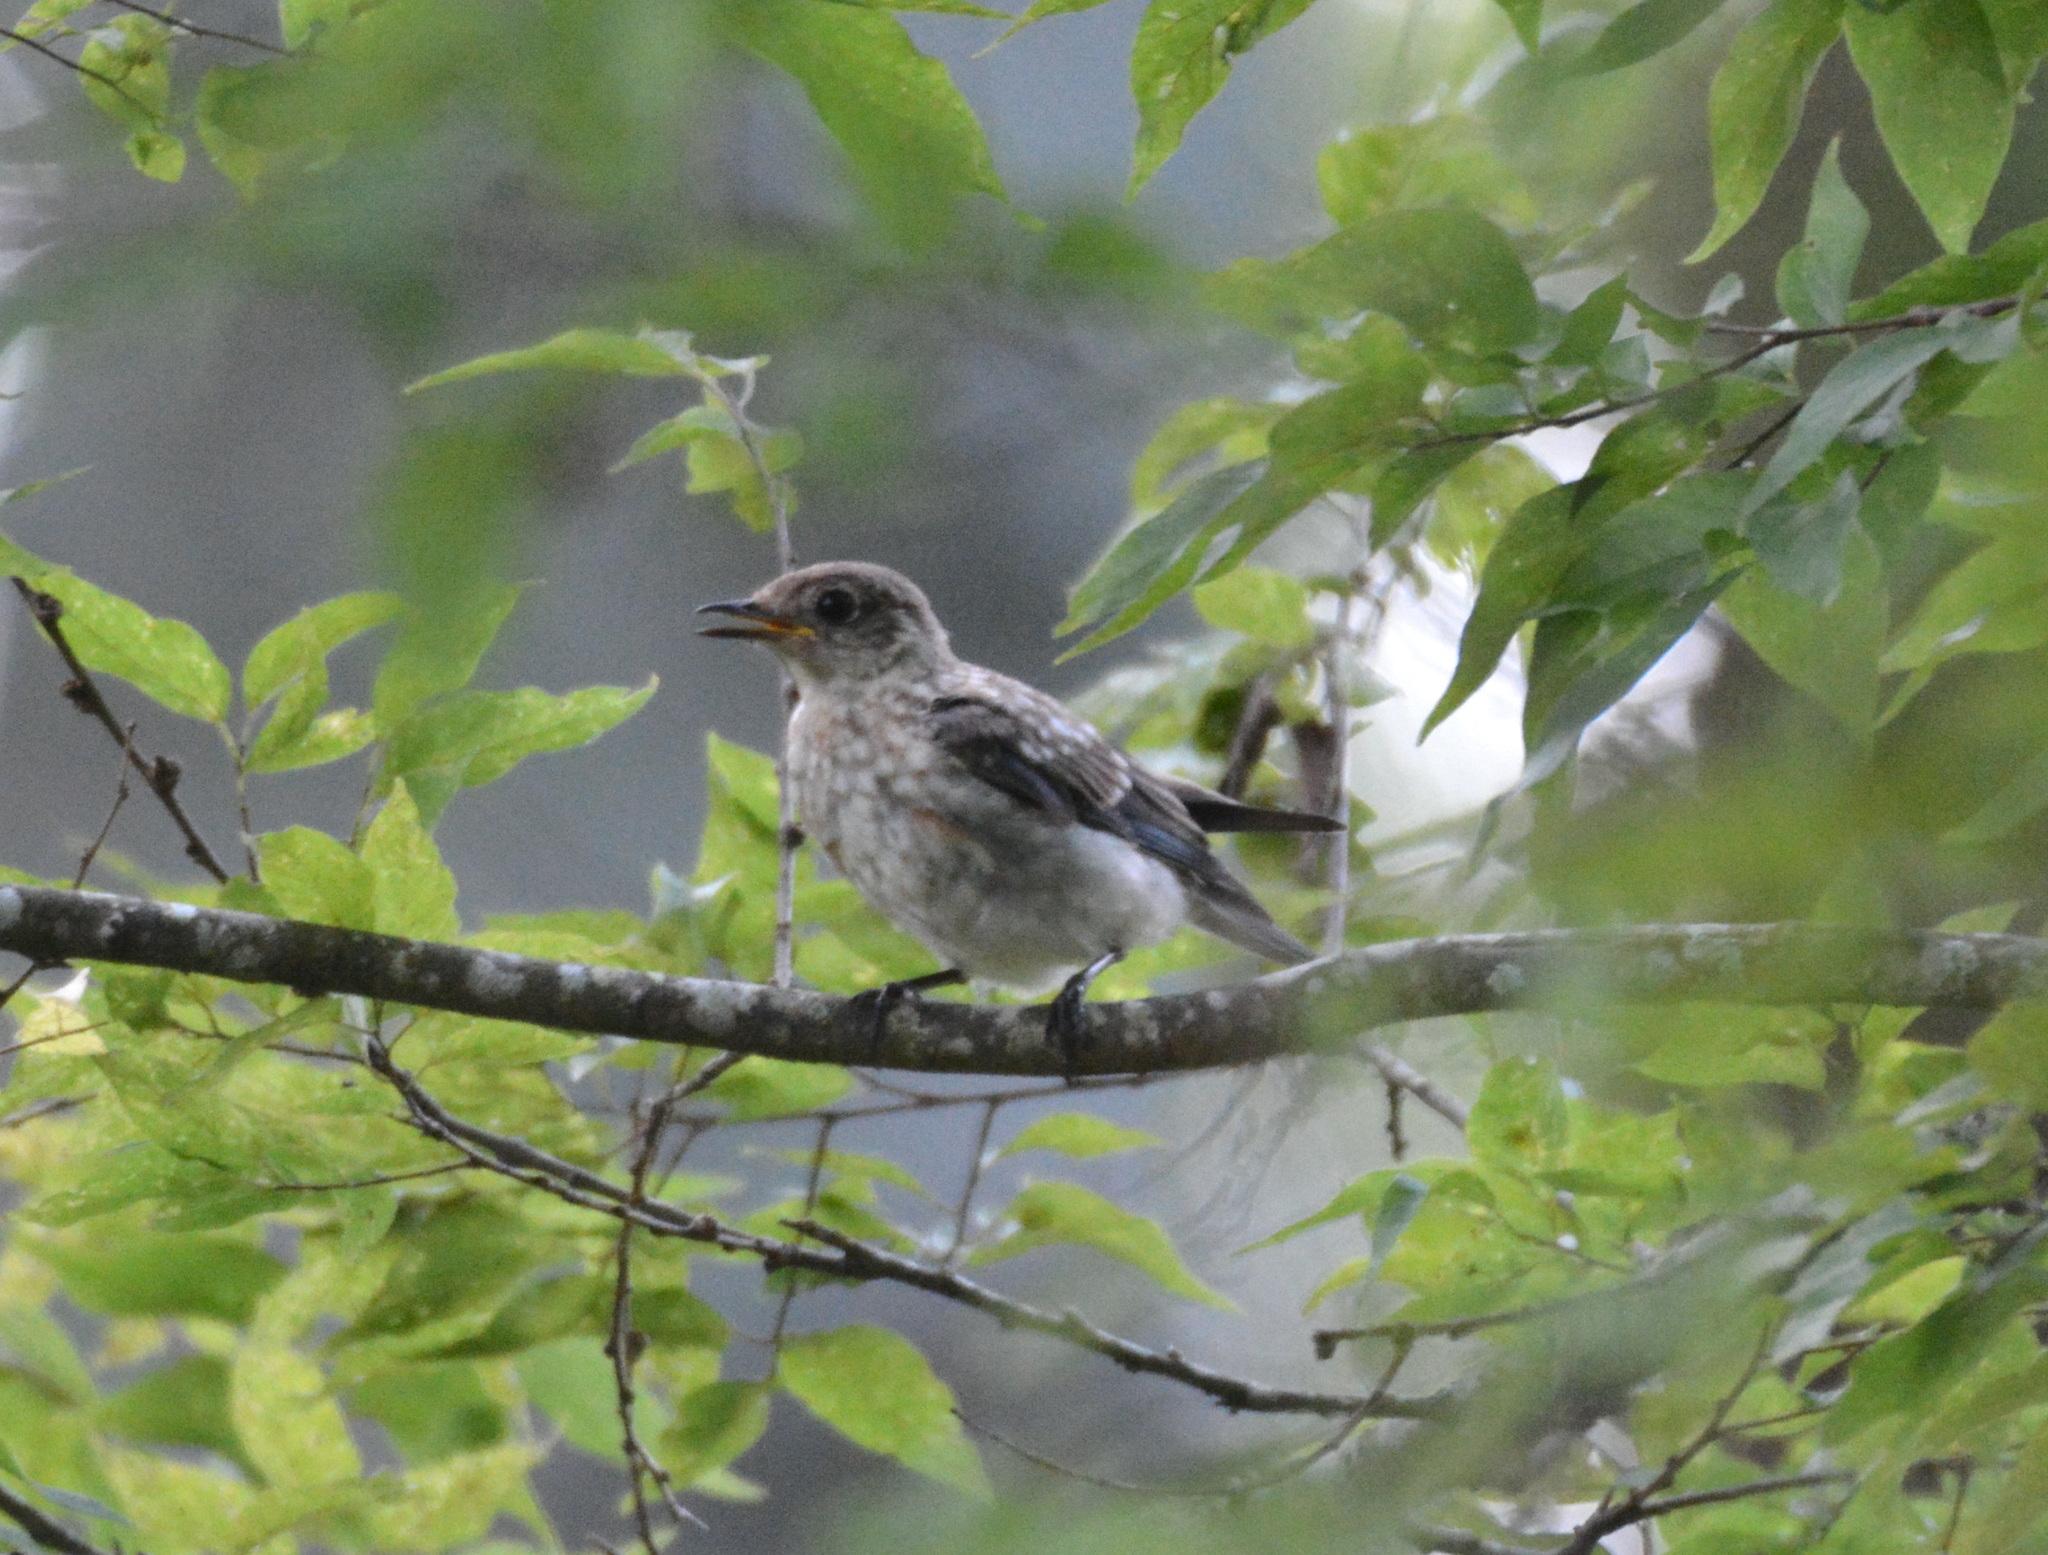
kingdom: Animalia
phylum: Chordata
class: Aves
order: Passeriformes
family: Turdidae
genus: Sialia
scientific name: Sialia sialis
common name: Eastern bluebird
